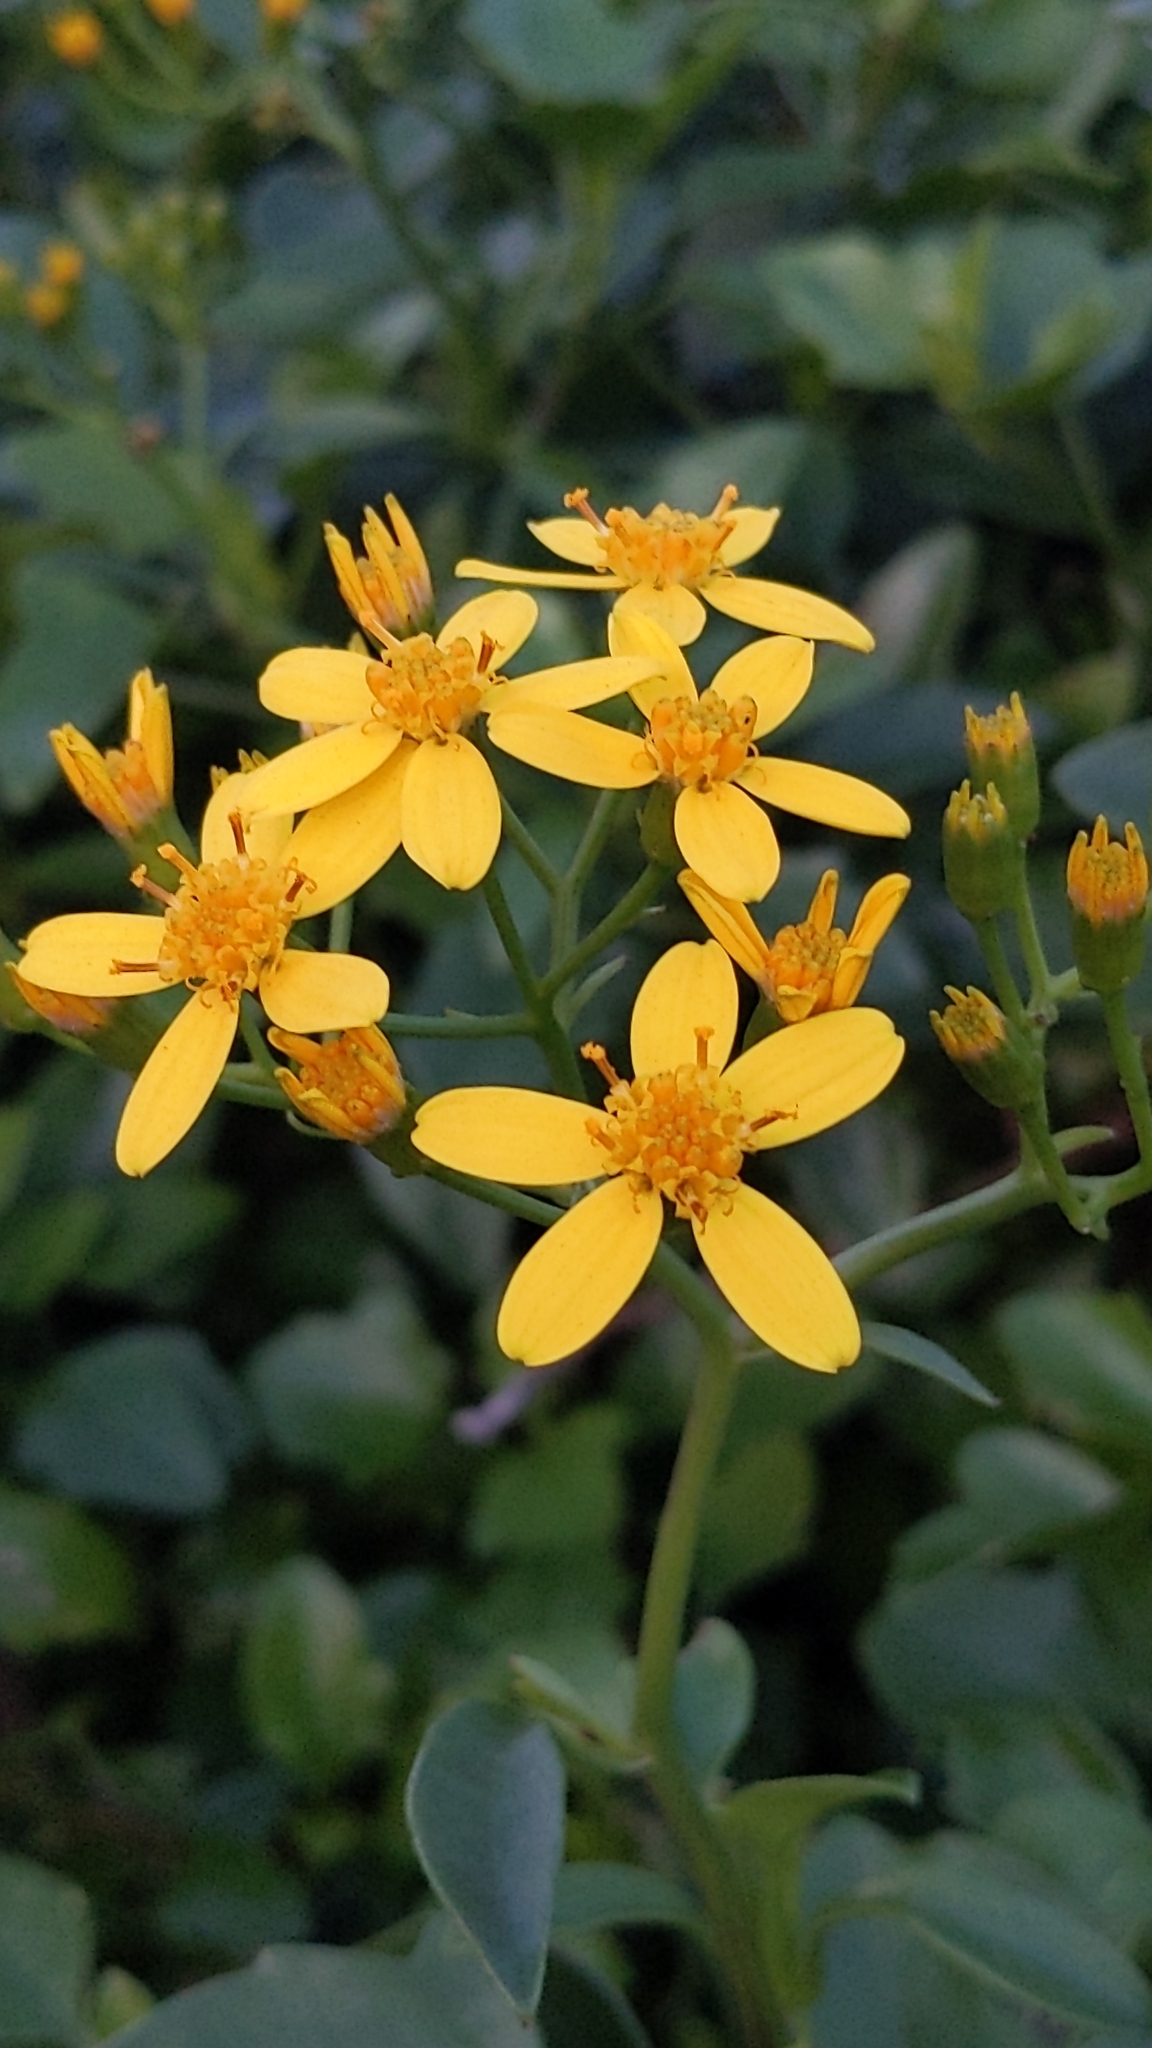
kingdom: Plantae
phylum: Tracheophyta
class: Magnoliopsida
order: Asterales
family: Asteraceae
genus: Senecio
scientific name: Senecio angulatus
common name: Climbing groundsel
